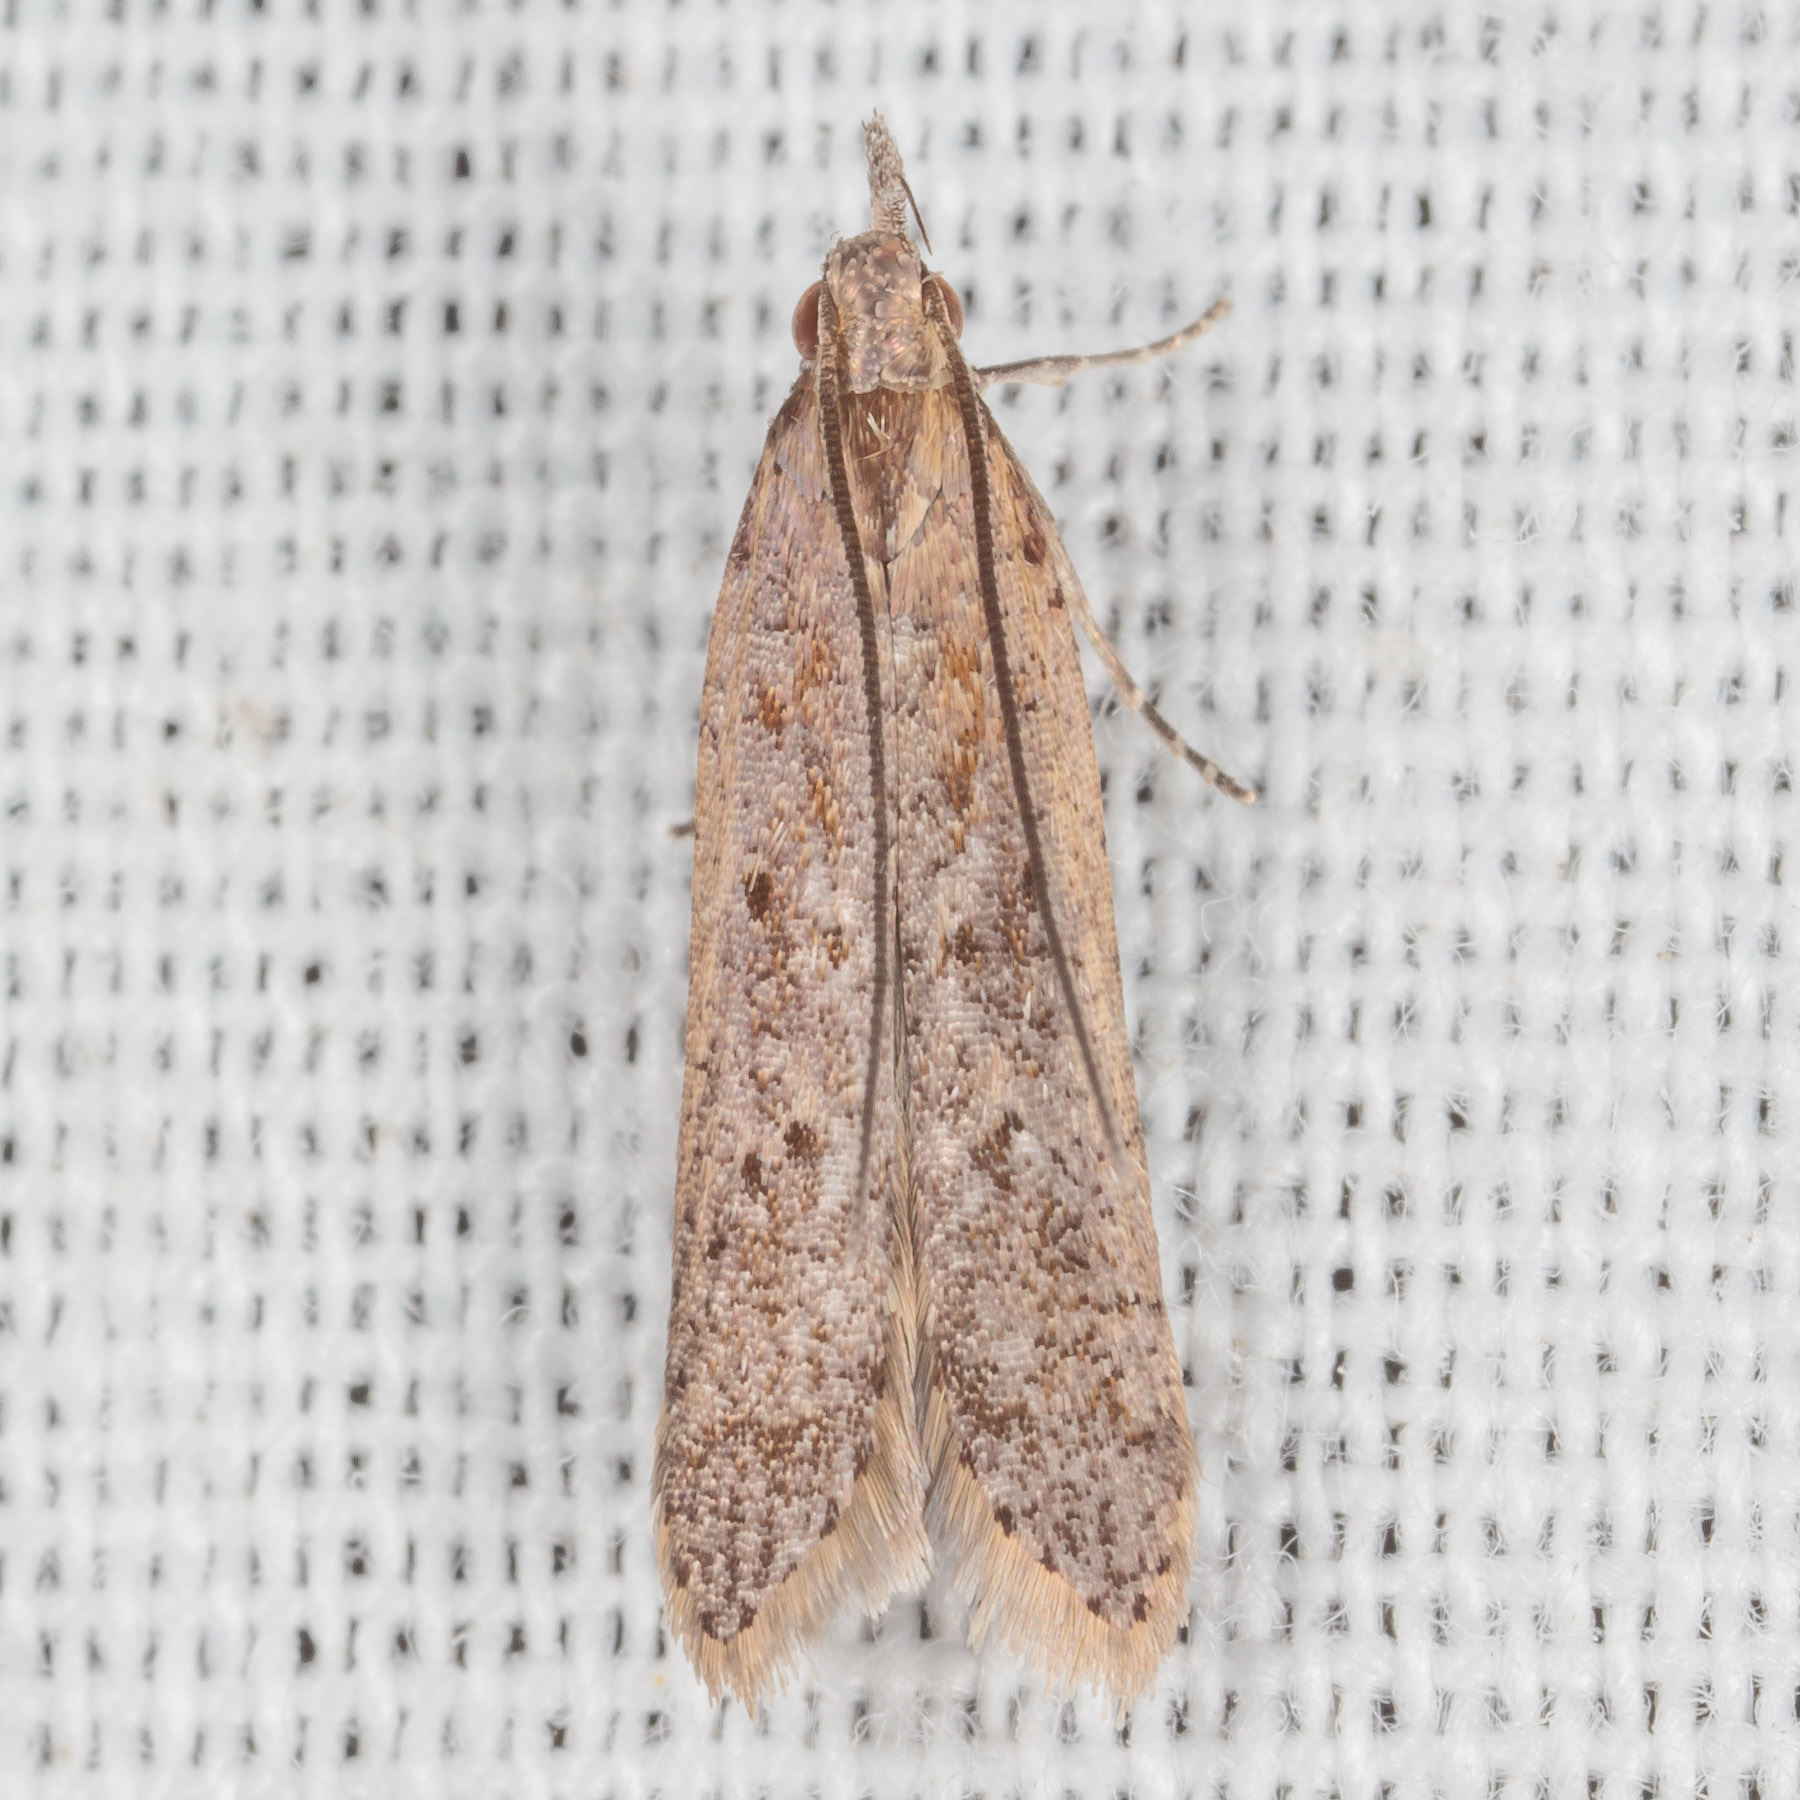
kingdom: Animalia
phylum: Arthropoda
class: Insecta
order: Lepidoptera
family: Gelechiidae
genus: Dichomeris
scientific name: Dichomeris ligulella
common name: Moth
